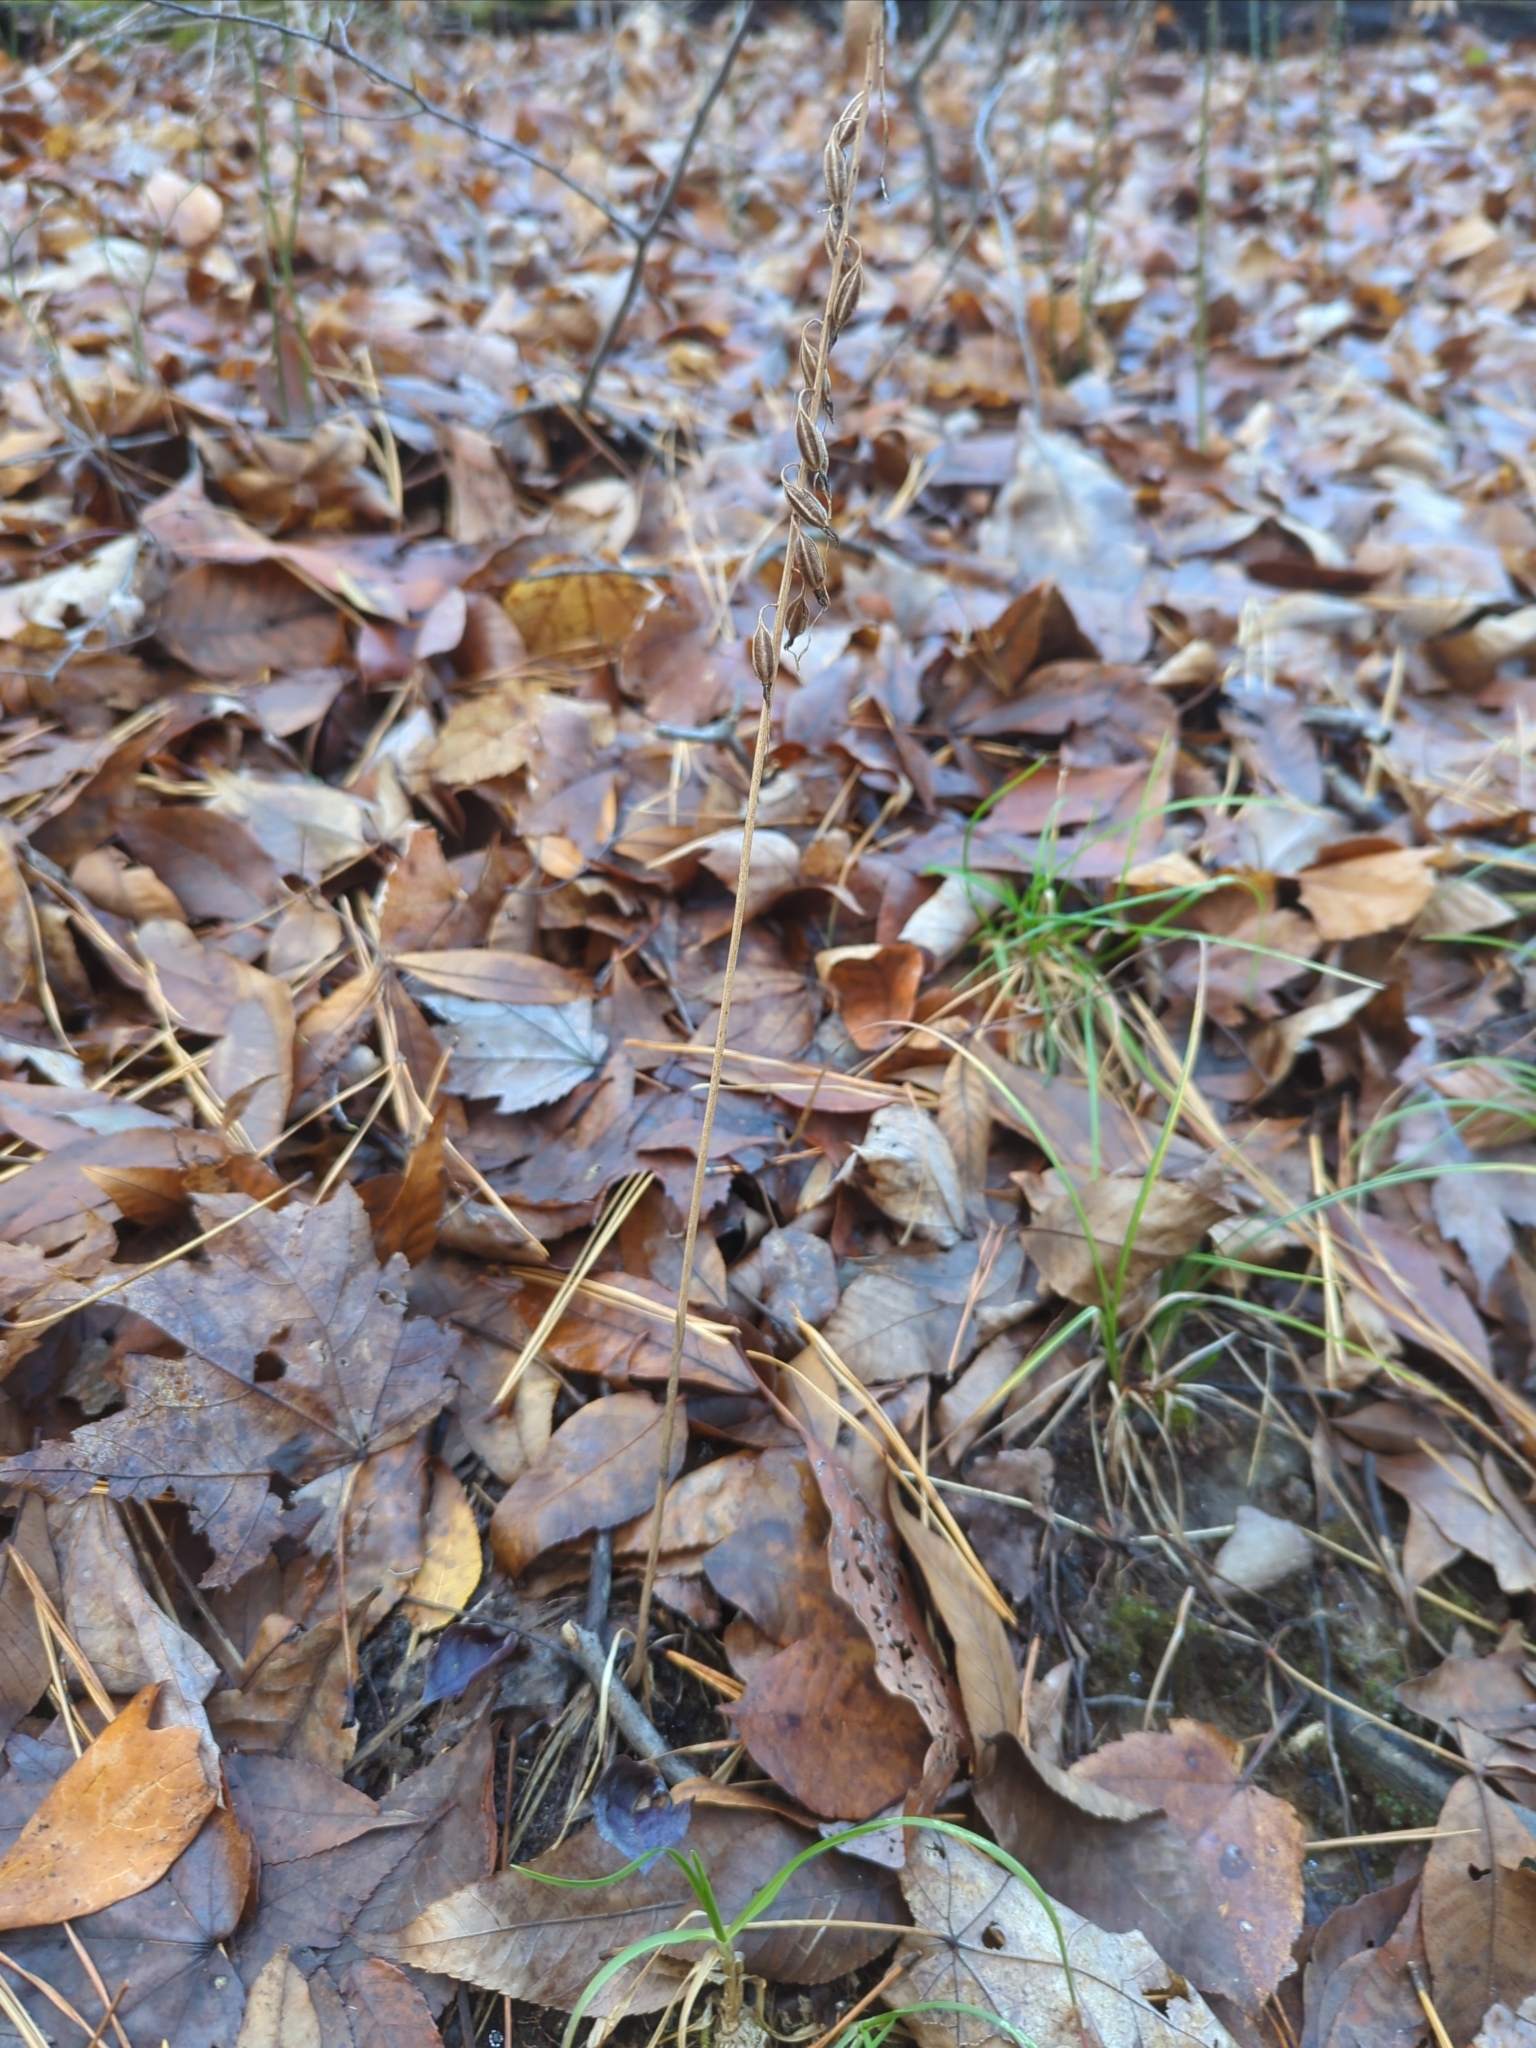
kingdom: Plantae
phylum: Tracheophyta
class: Liliopsida
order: Asparagales
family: Orchidaceae
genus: Tipularia
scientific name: Tipularia discolor
